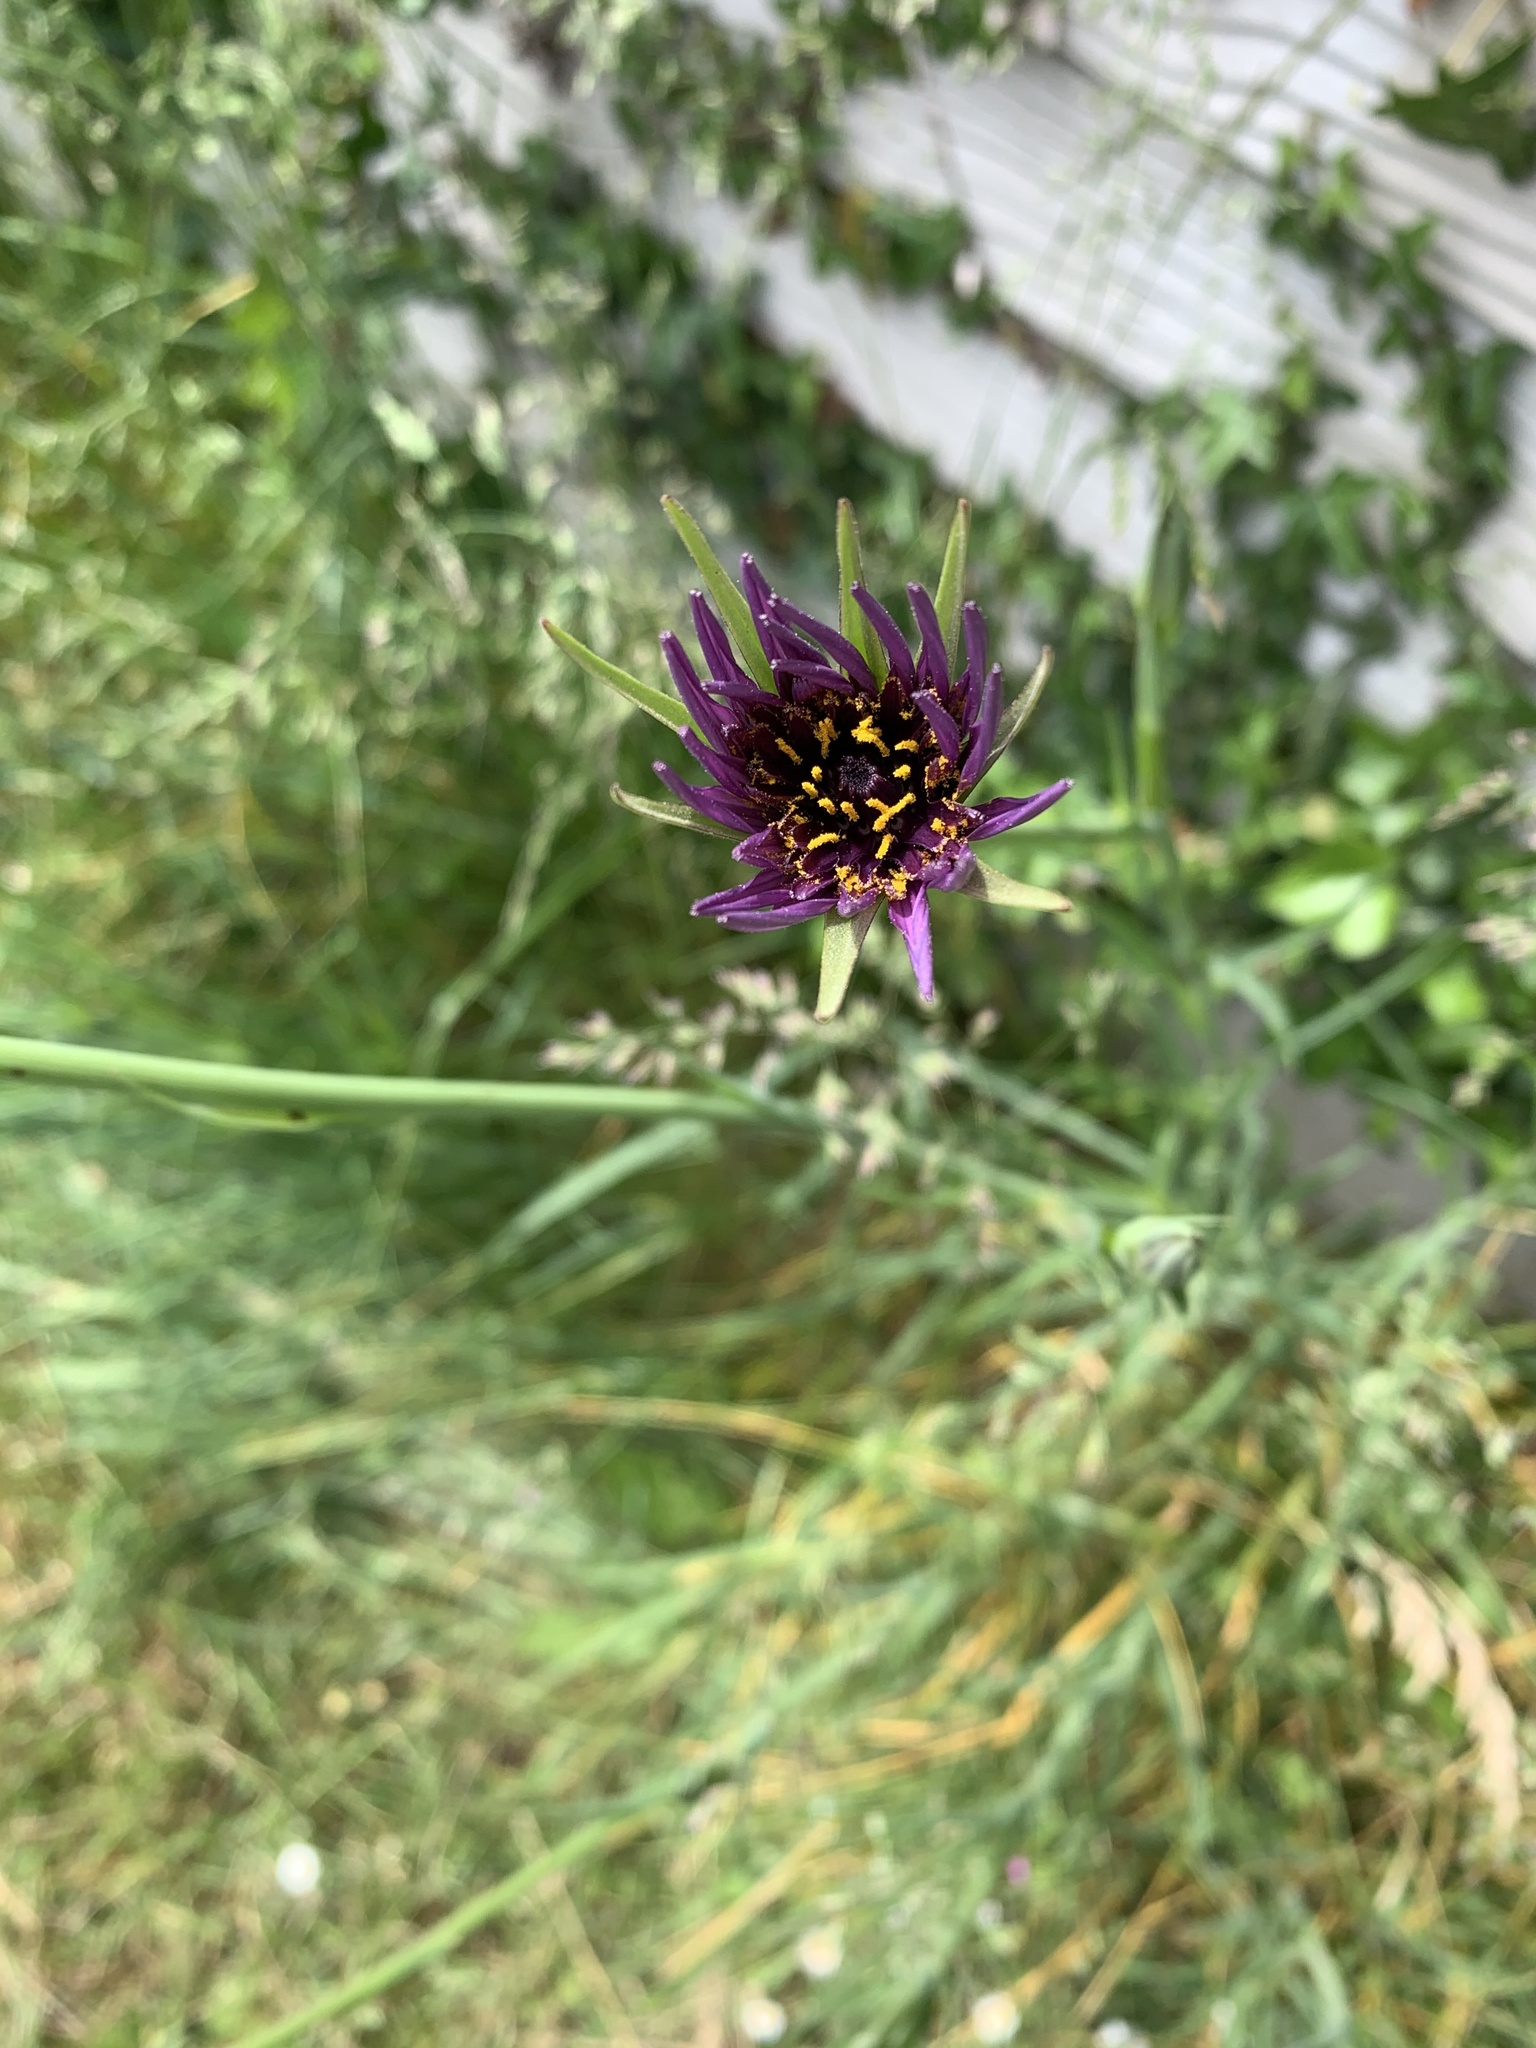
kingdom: Plantae
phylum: Tracheophyta
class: Magnoliopsida
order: Asterales
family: Asteraceae
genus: Tragopogon
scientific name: Tragopogon porrifolius
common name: Salsify
